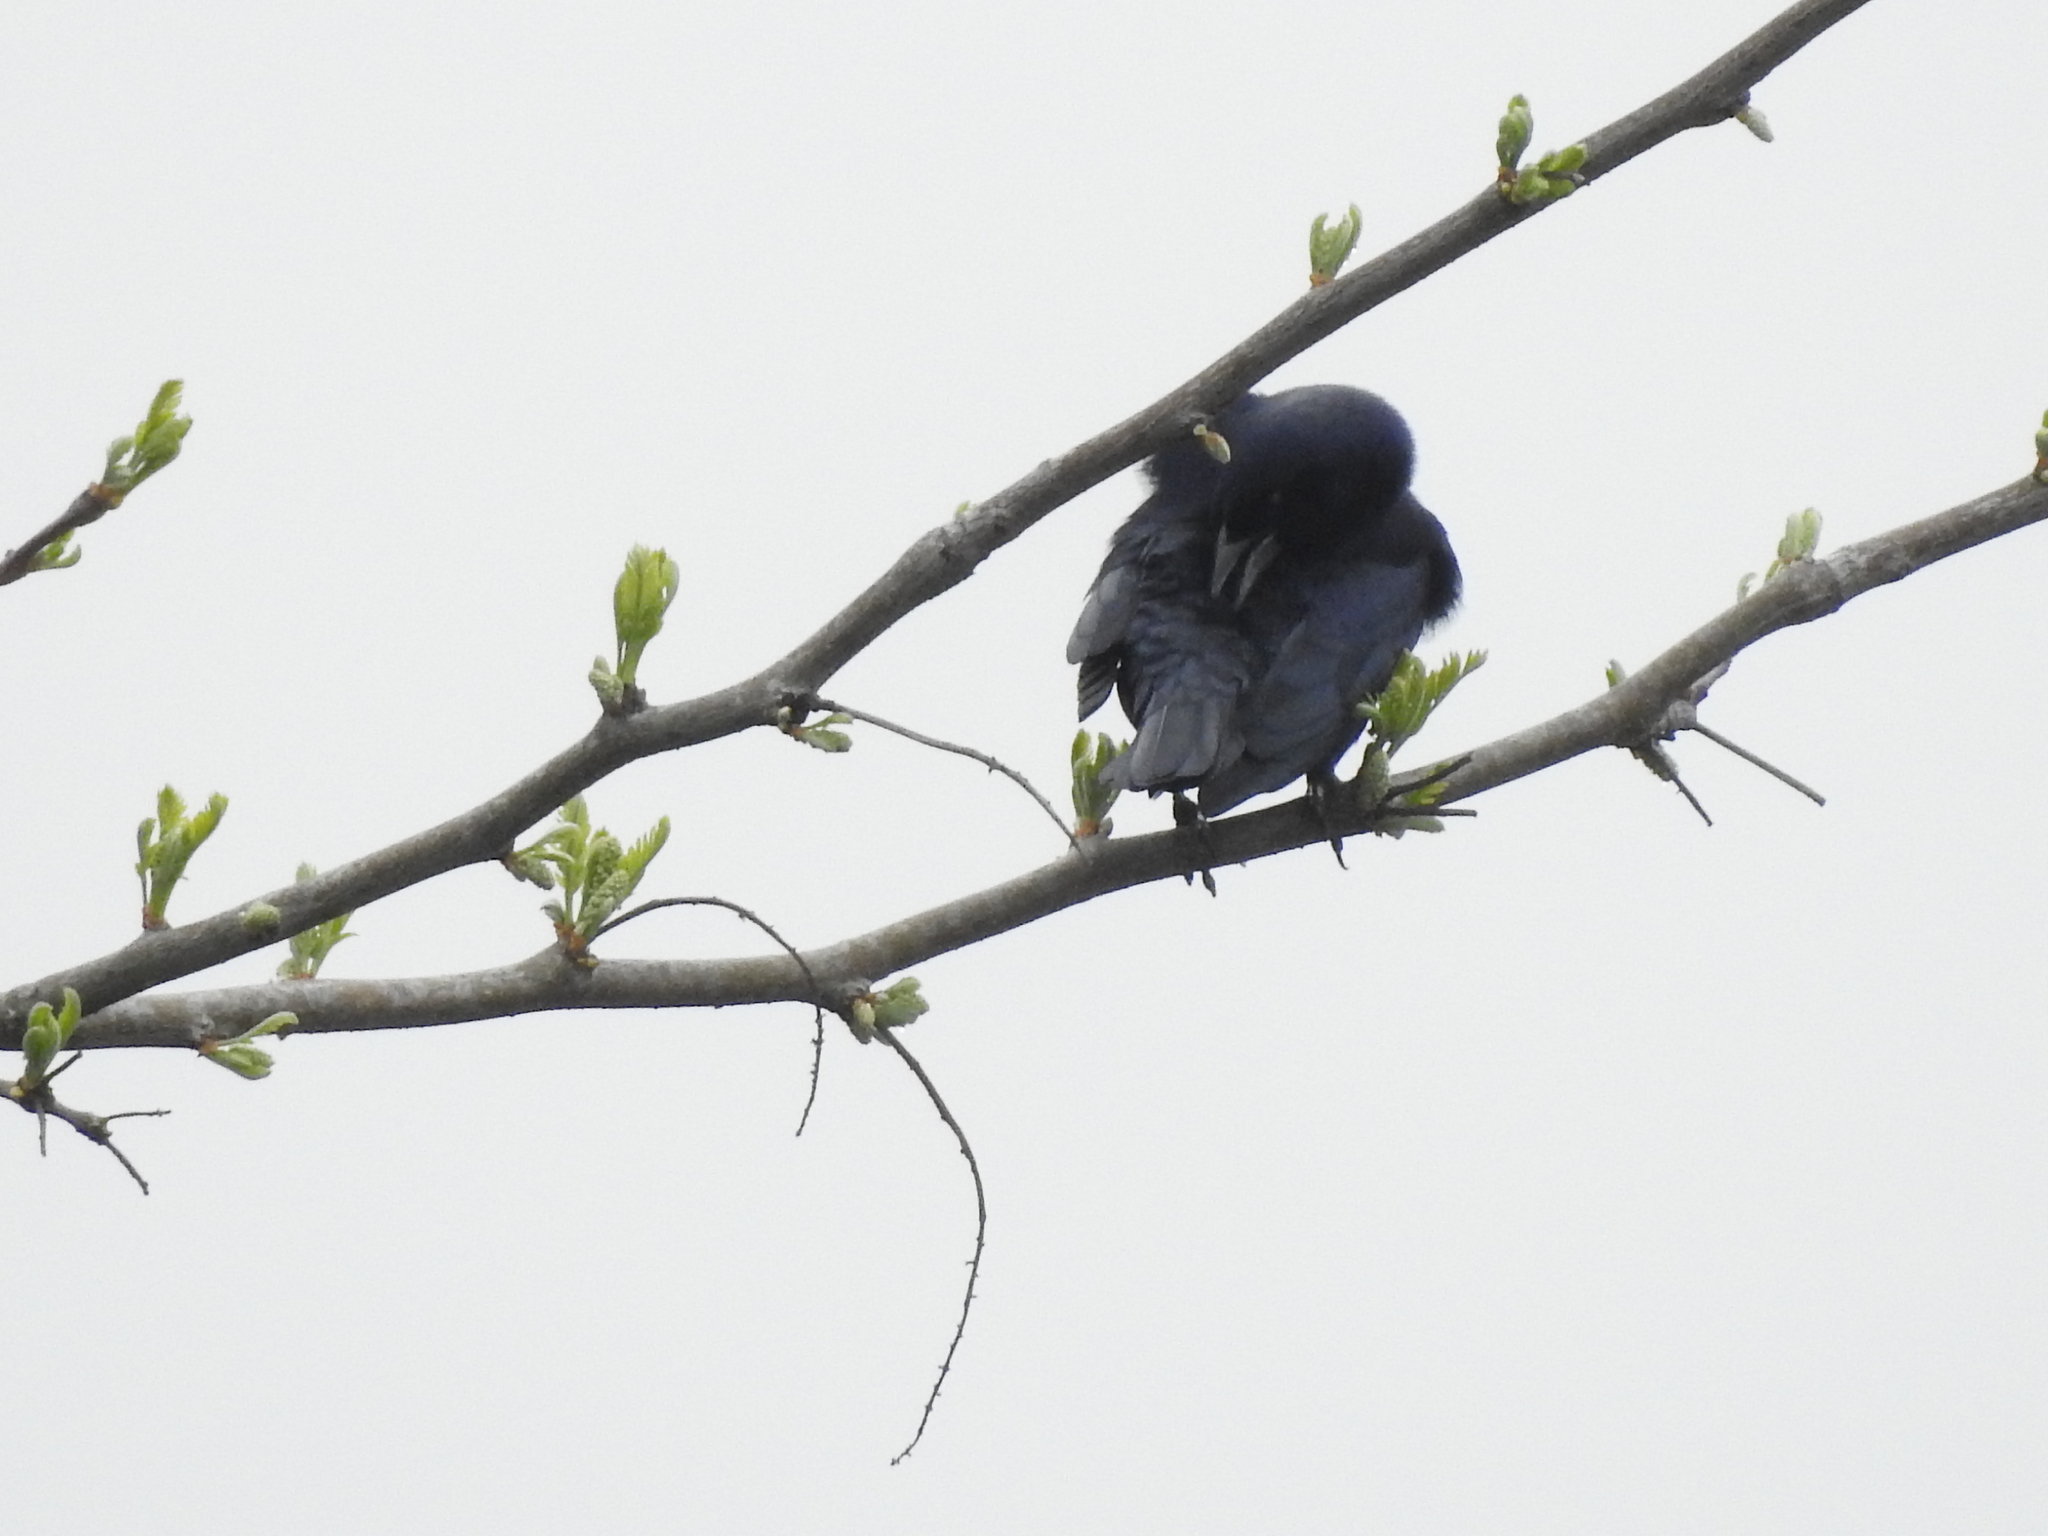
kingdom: Animalia
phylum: Chordata
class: Aves
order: Passeriformes
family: Icteridae
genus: Molothrus
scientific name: Molothrus bonariensis
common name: Shiny cowbird
